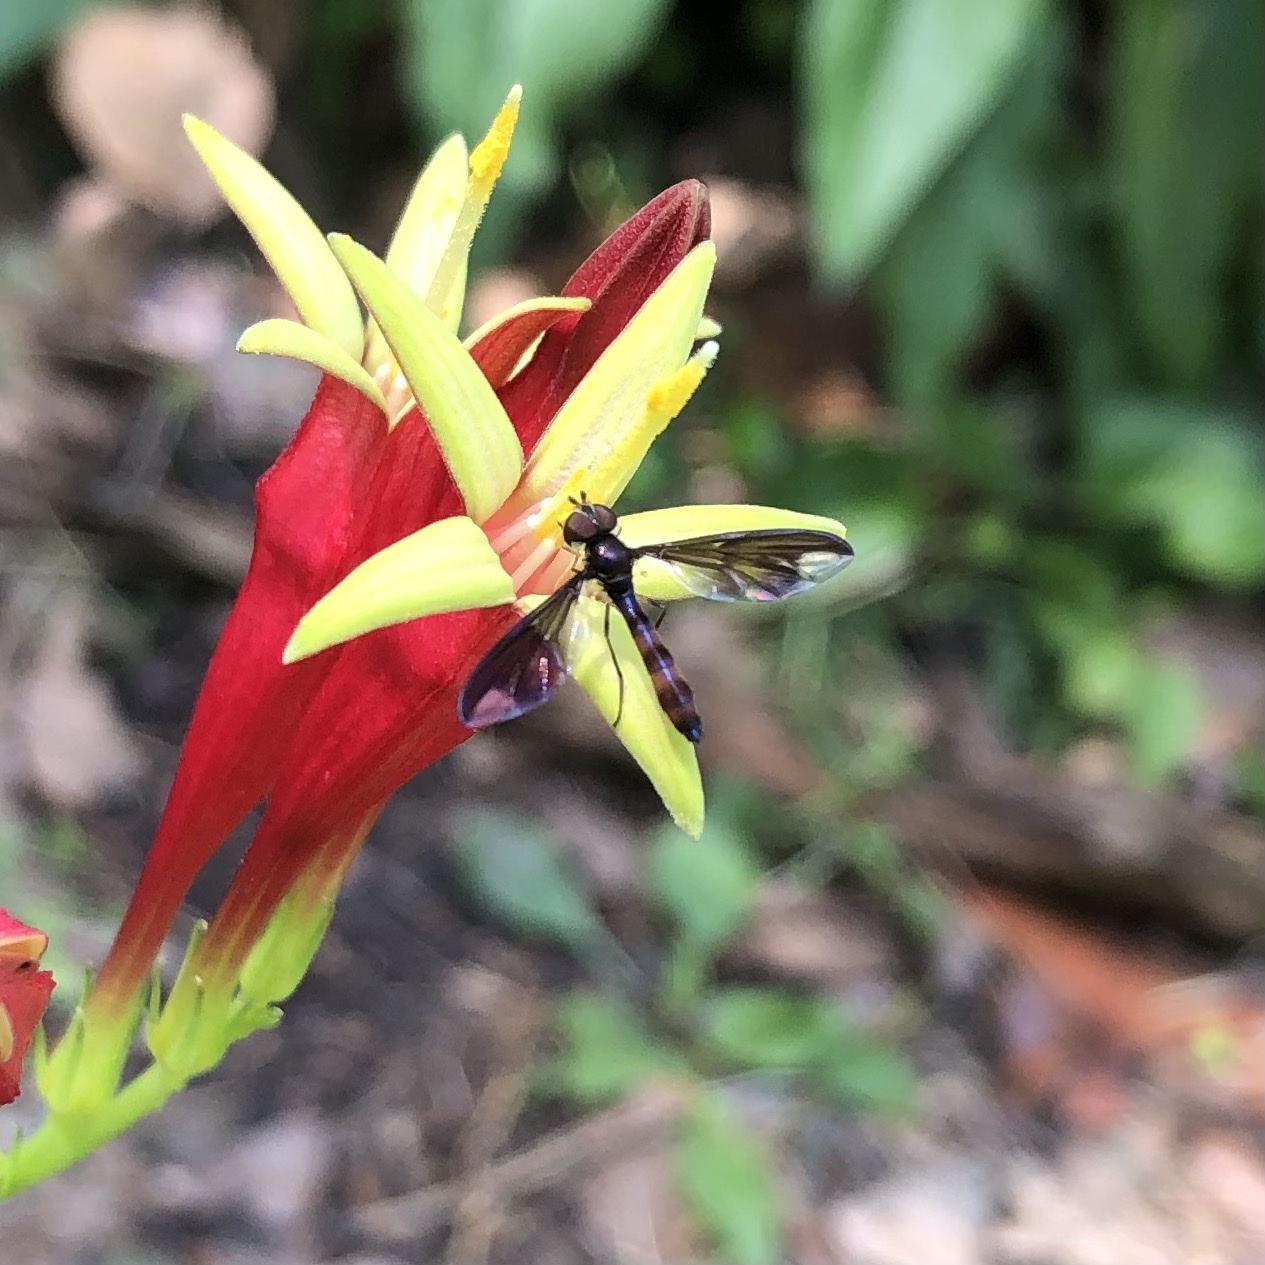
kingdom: Animalia
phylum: Arthropoda
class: Insecta
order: Diptera
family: Syrphidae
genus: Ocyptamus
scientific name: Ocyptamus fuscipennis
